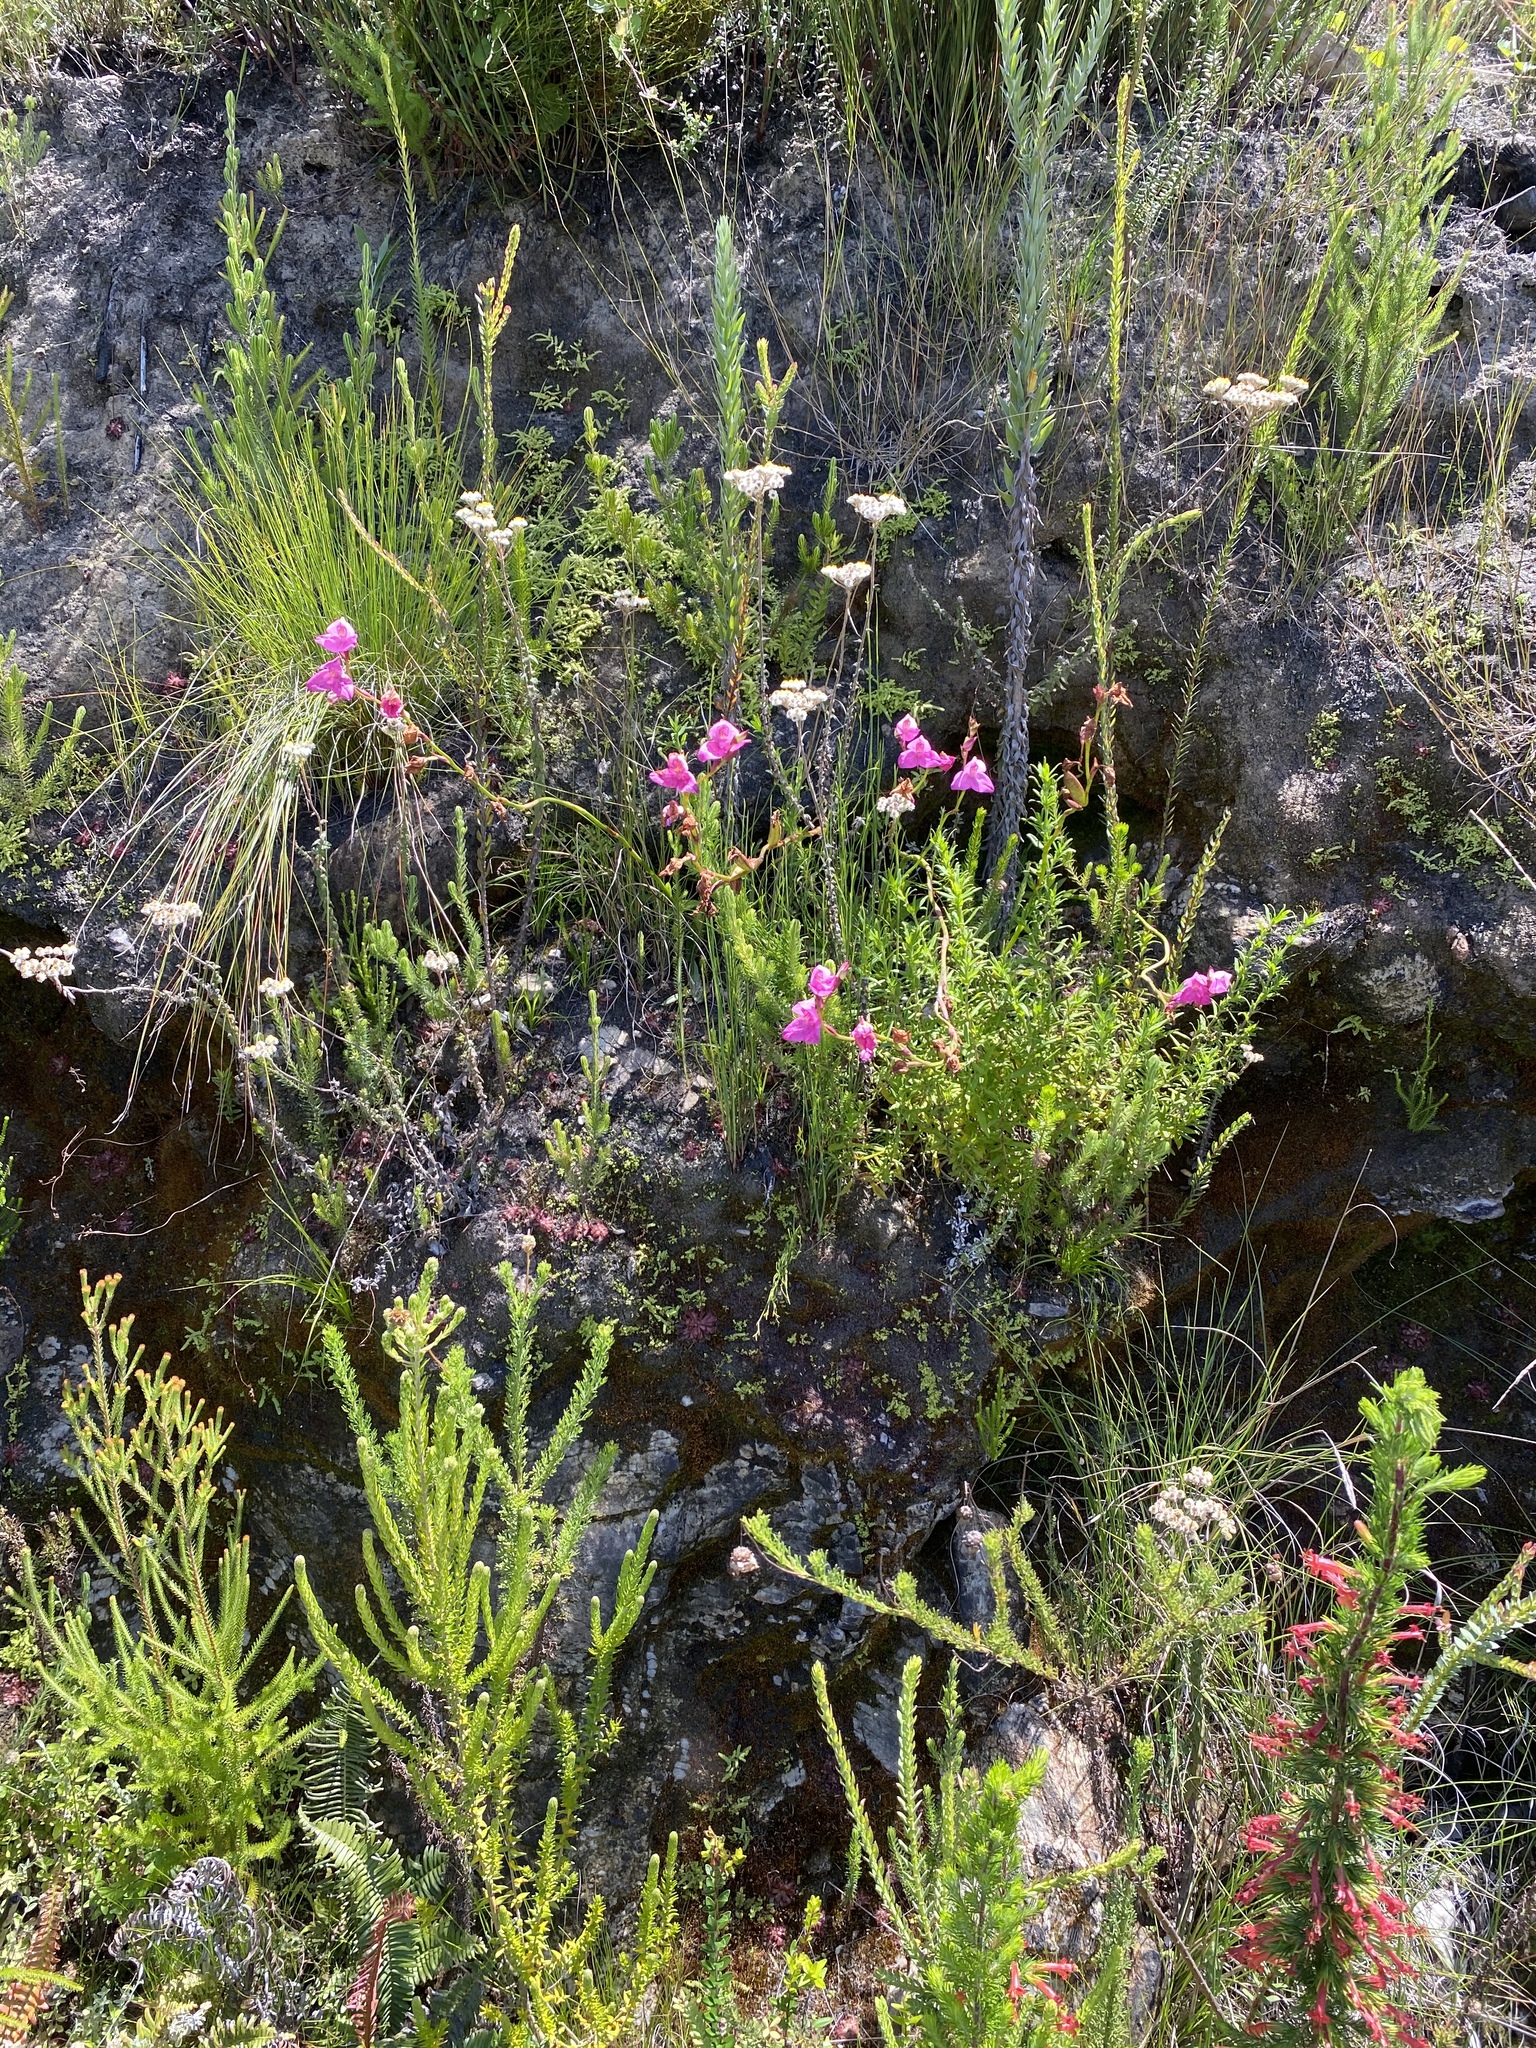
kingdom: Plantae
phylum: Tracheophyta
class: Liliopsida
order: Asparagales
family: Orchidaceae
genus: Disa
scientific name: Disa racemosa
